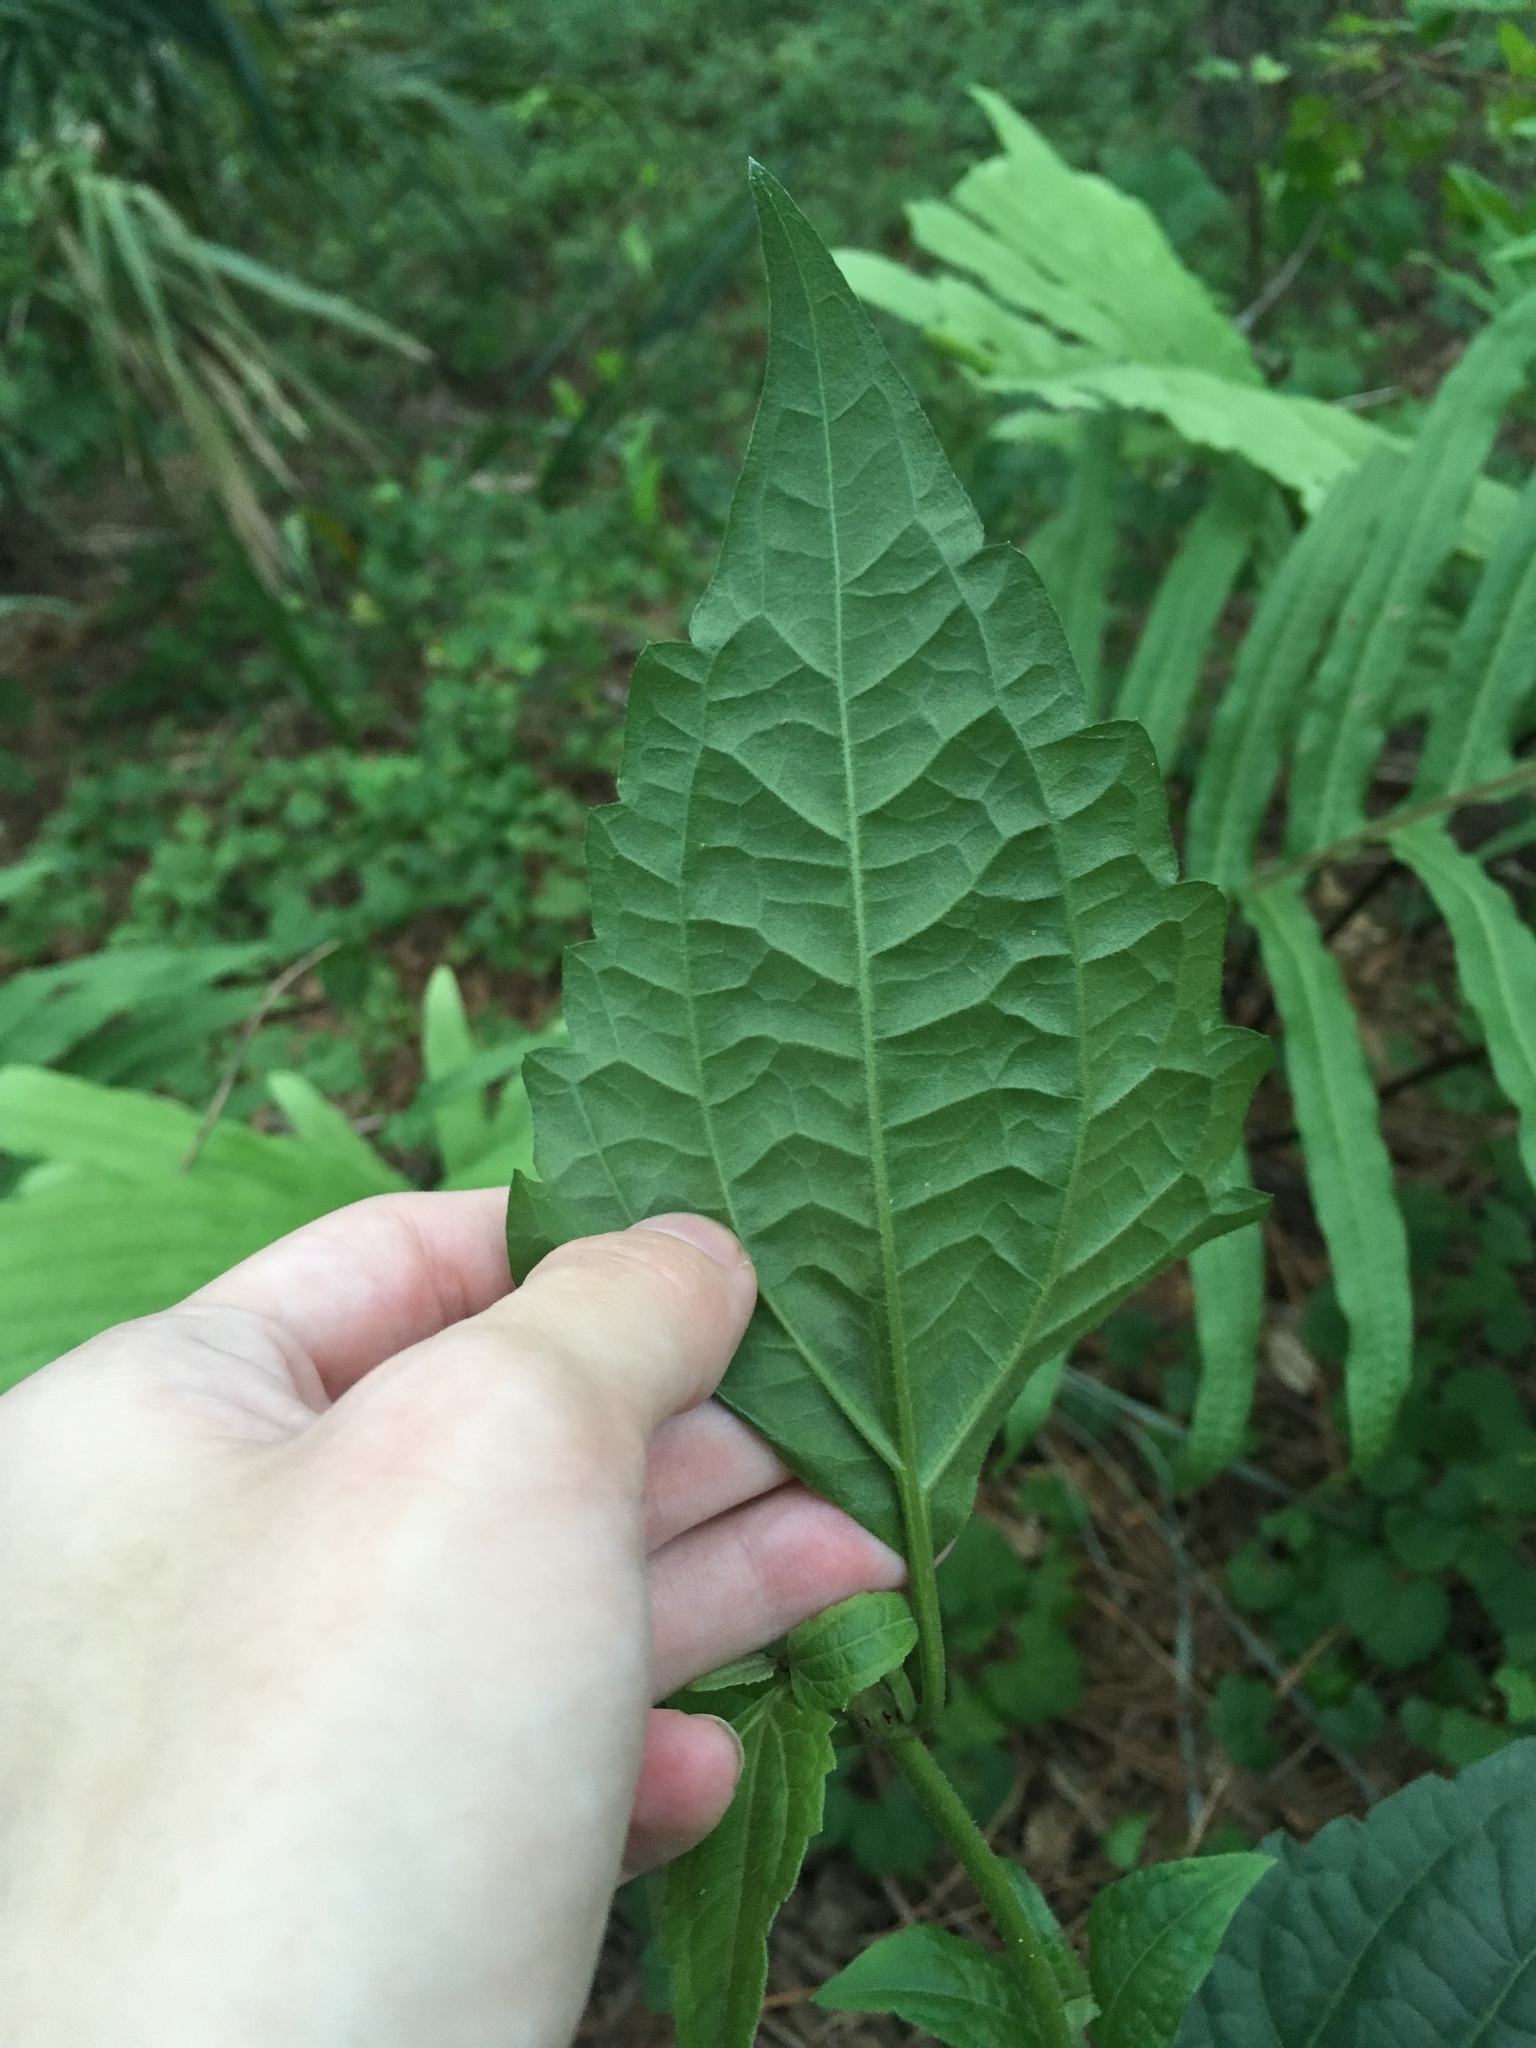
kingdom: Plantae
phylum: Tracheophyta
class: Magnoliopsida
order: Asterales
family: Asteraceae
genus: Chromolaena
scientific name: Chromolaena odorata
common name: Siamweed
